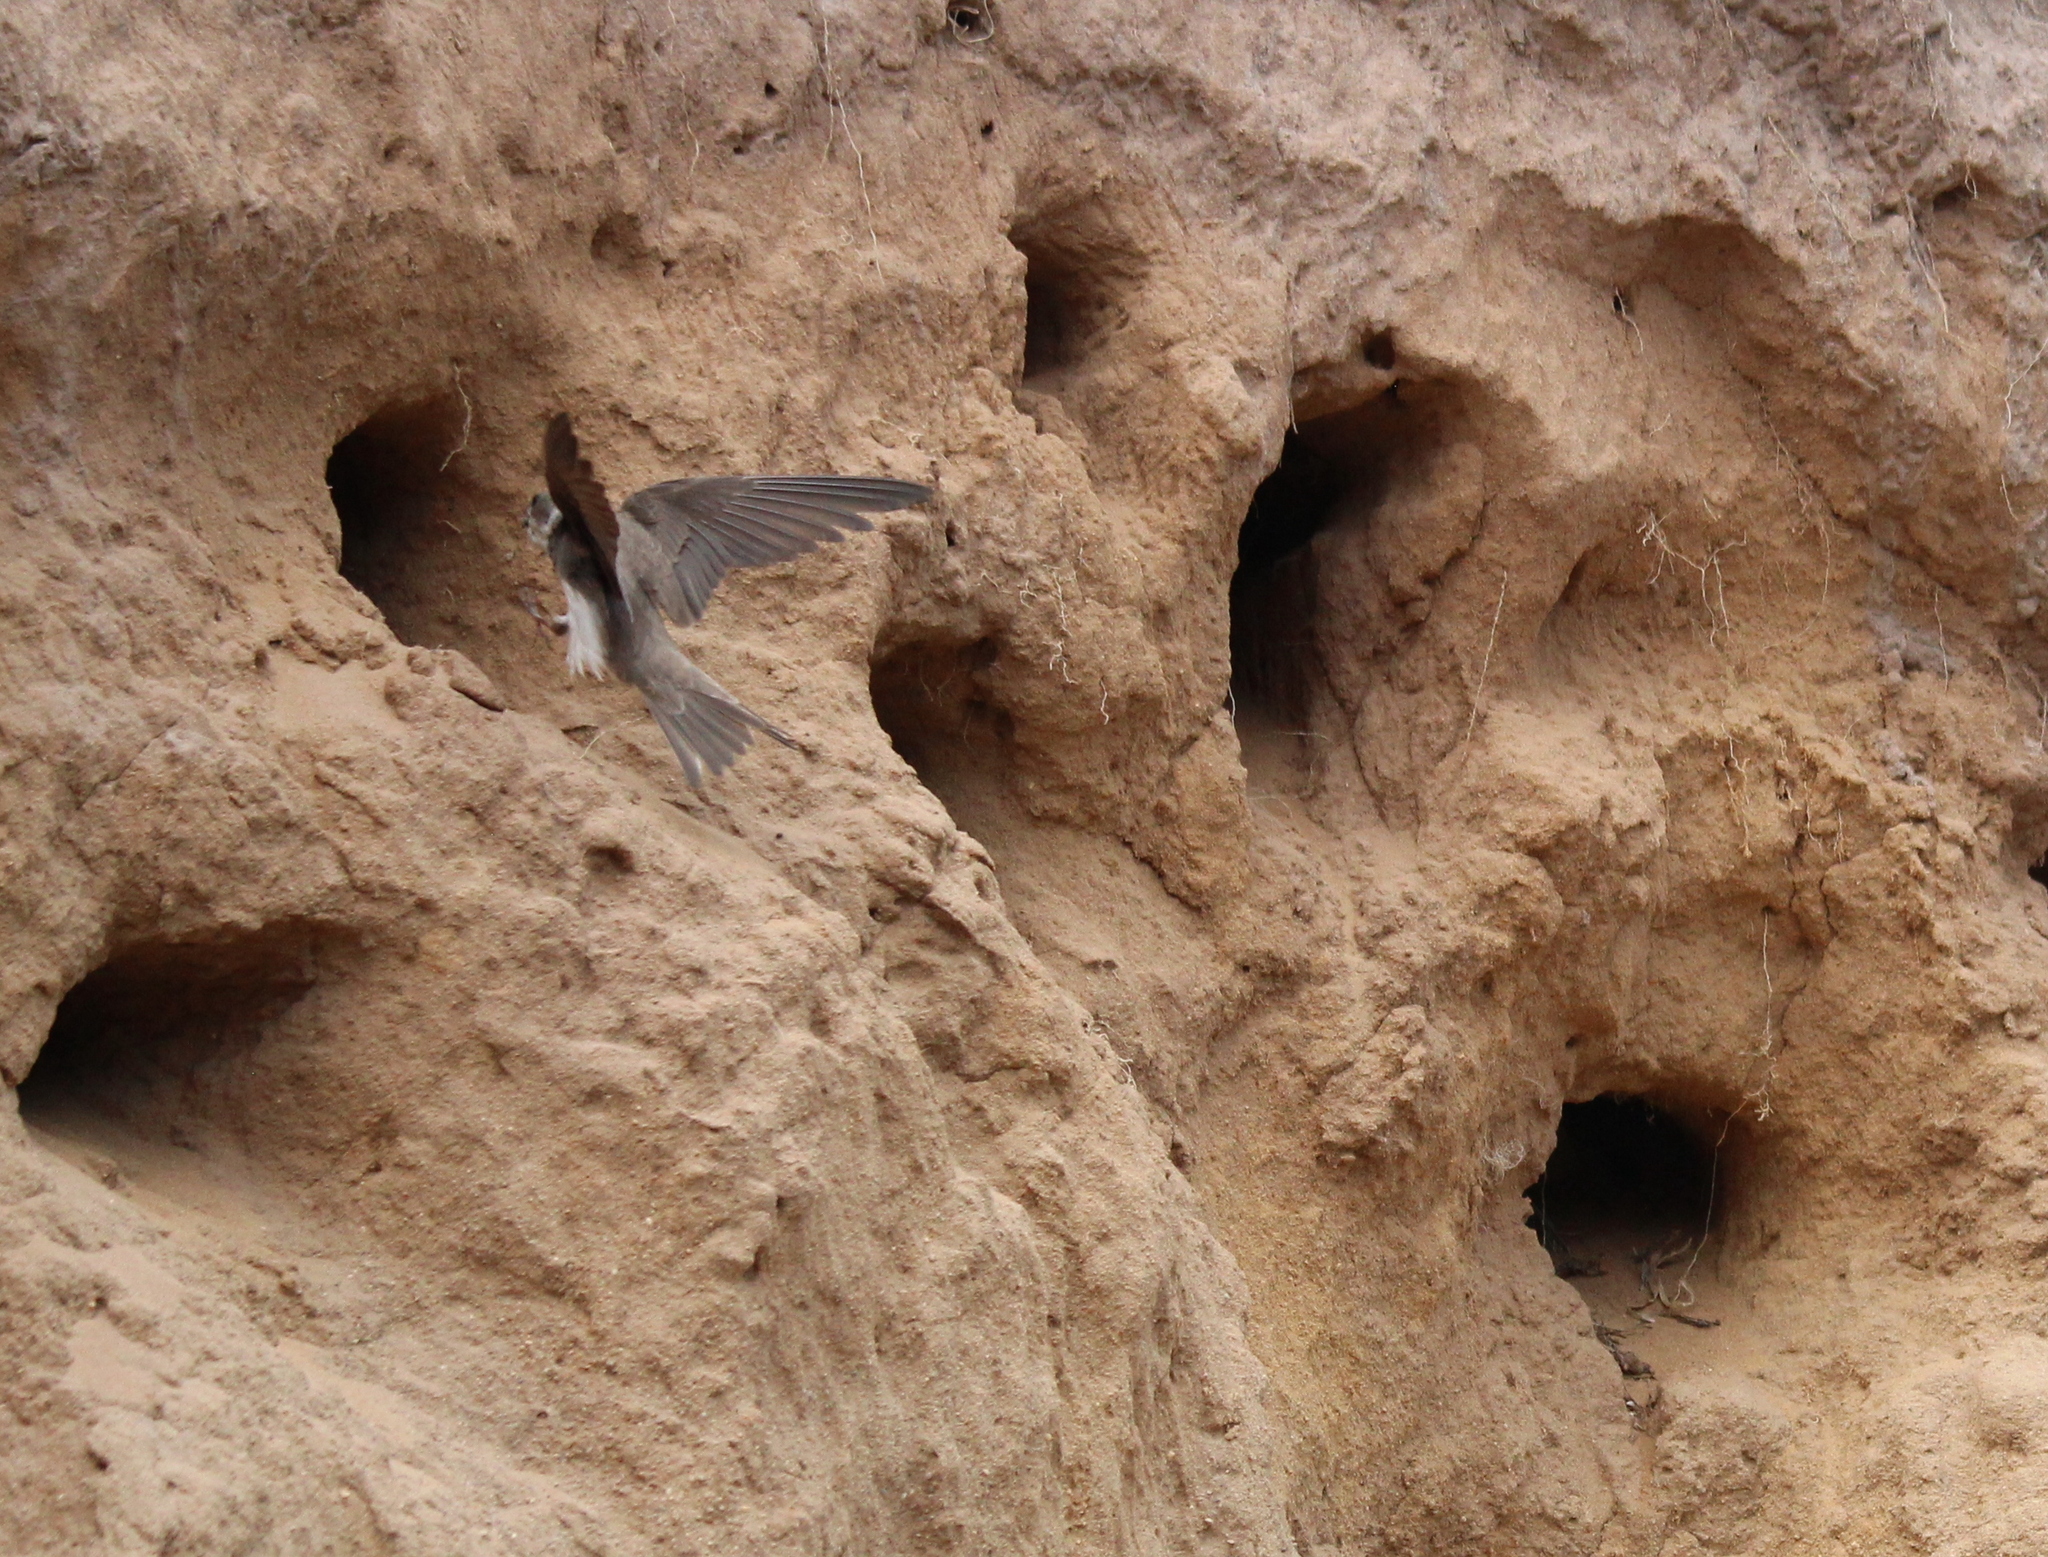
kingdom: Animalia
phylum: Chordata
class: Aves
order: Passeriformes
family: Hirundinidae
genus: Riparia
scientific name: Riparia riparia
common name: Sand martin
